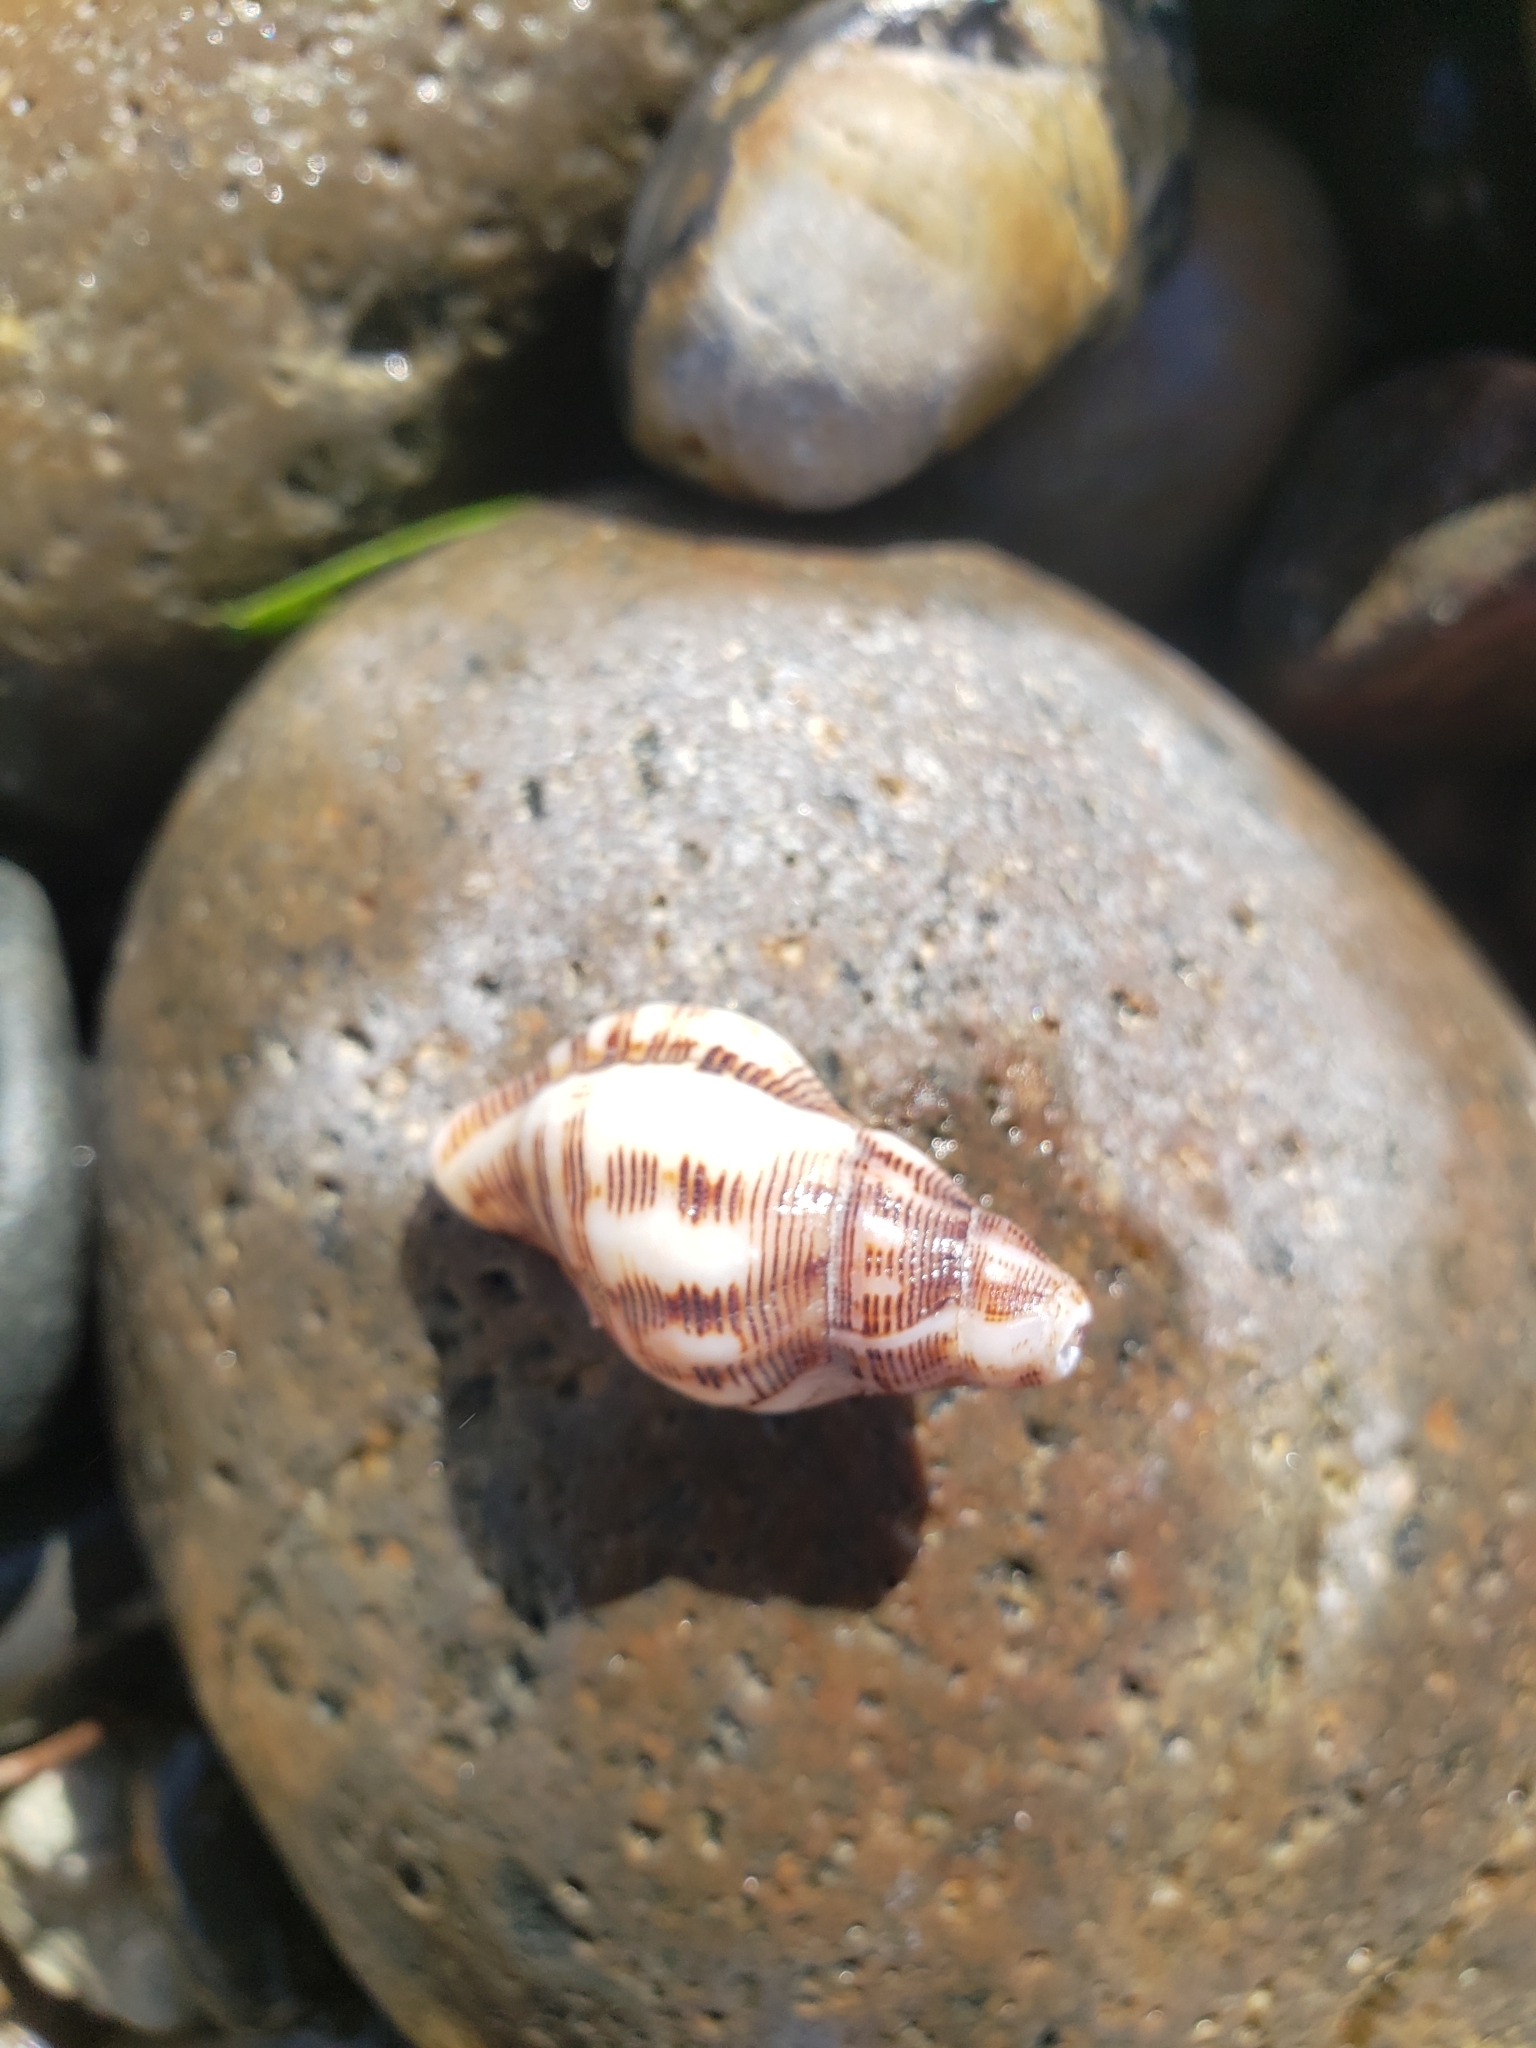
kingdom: Animalia
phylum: Mollusca
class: Gastropoda
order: Neogastropoda
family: Muricidae
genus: Roperia
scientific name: Roperia poulsoni
